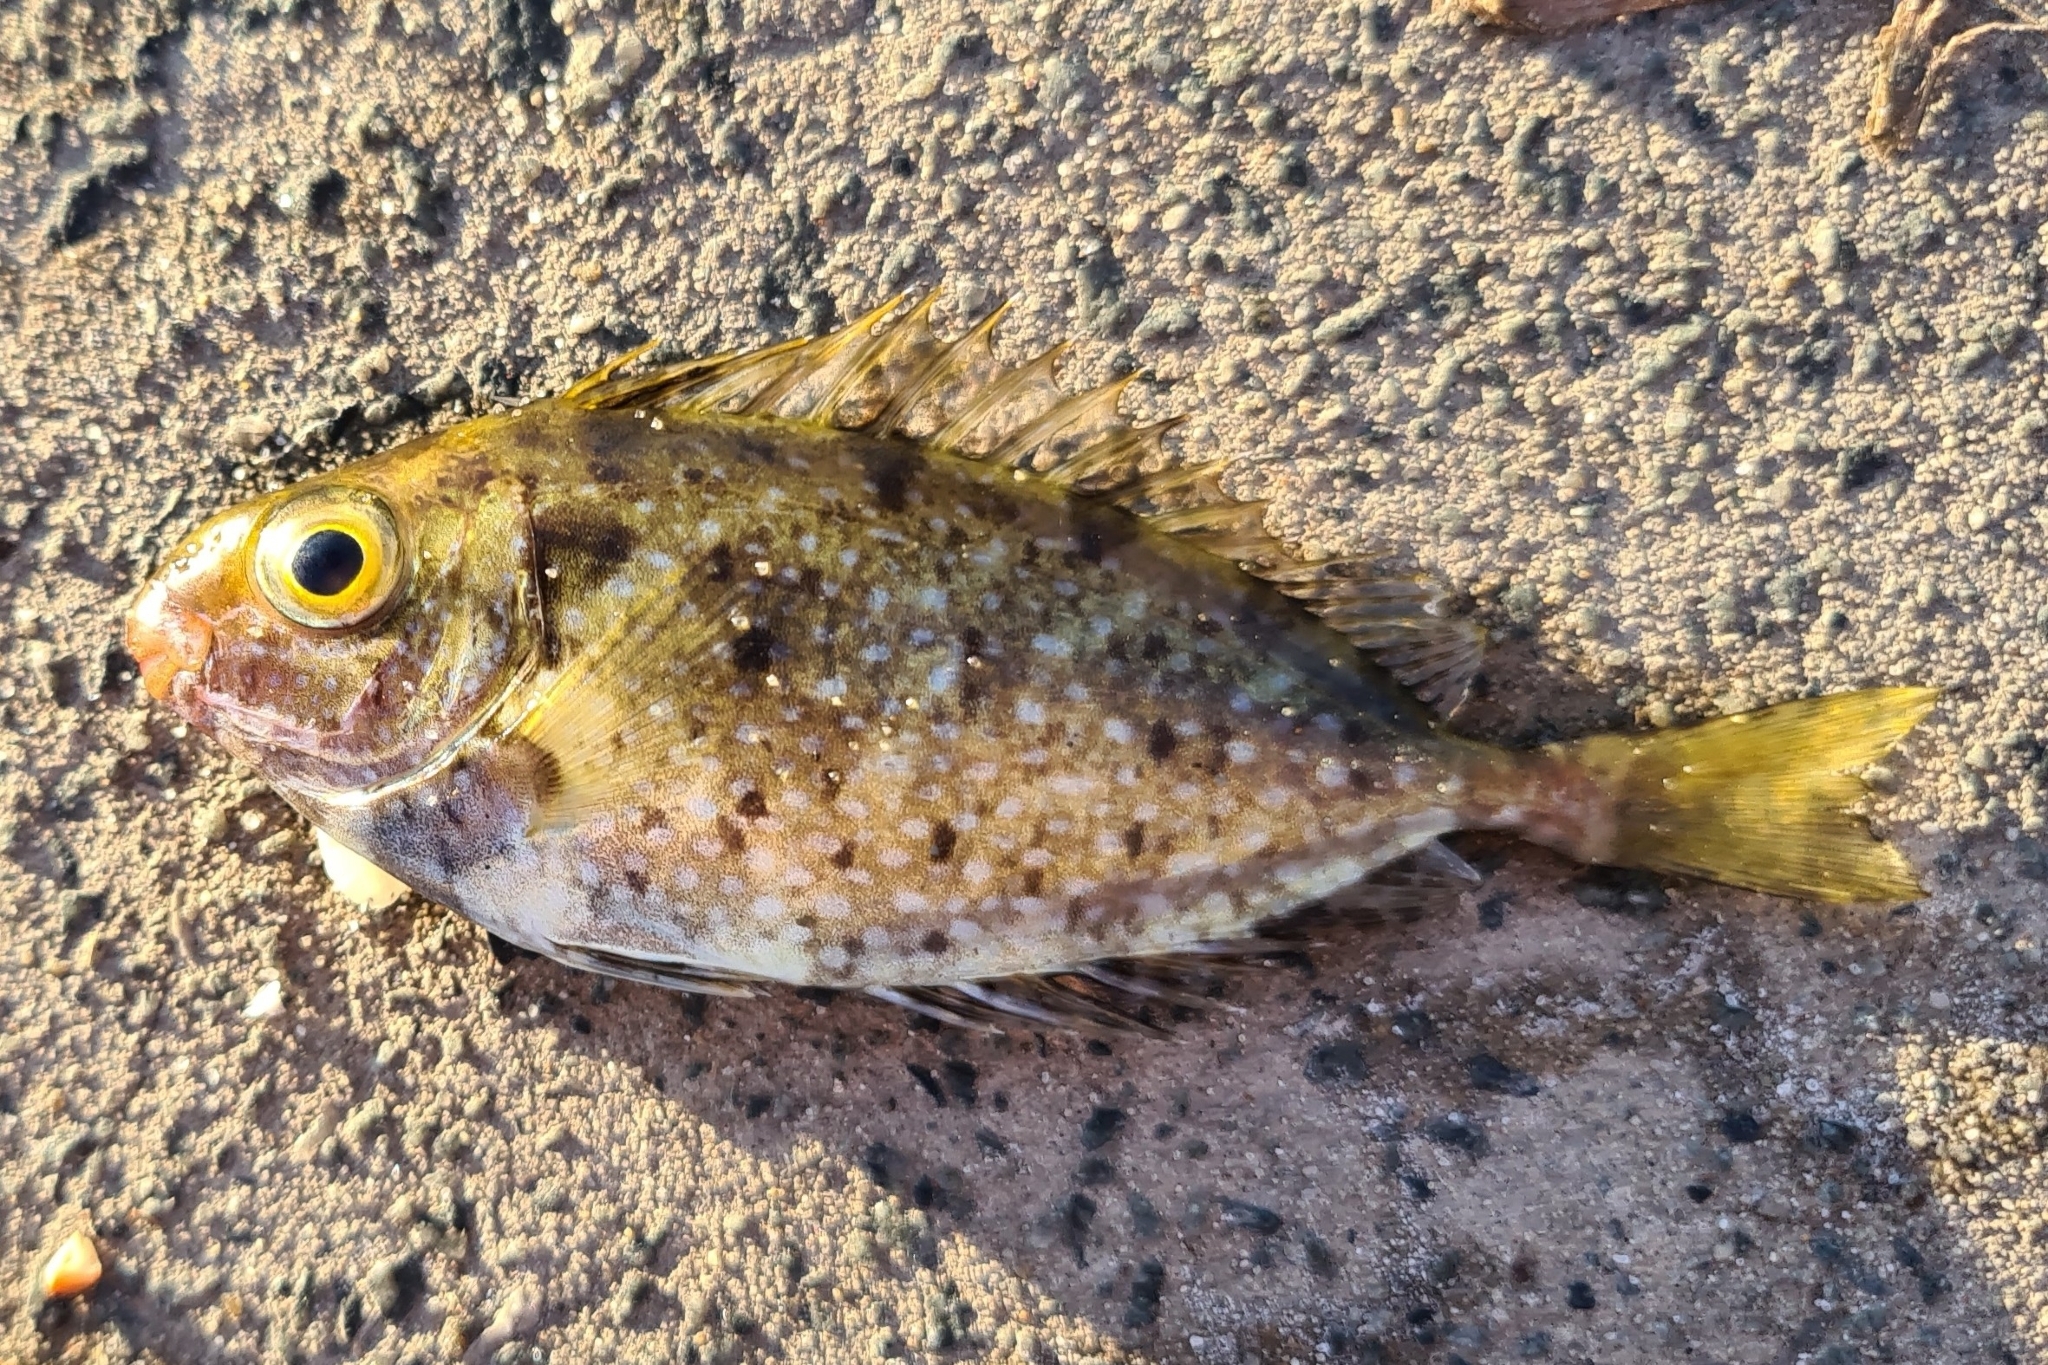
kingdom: Animalia
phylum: Chordata
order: Perciformes
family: Siganidae
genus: Siganus
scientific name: Siganus fuscescens
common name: Dusky rabbitfish
